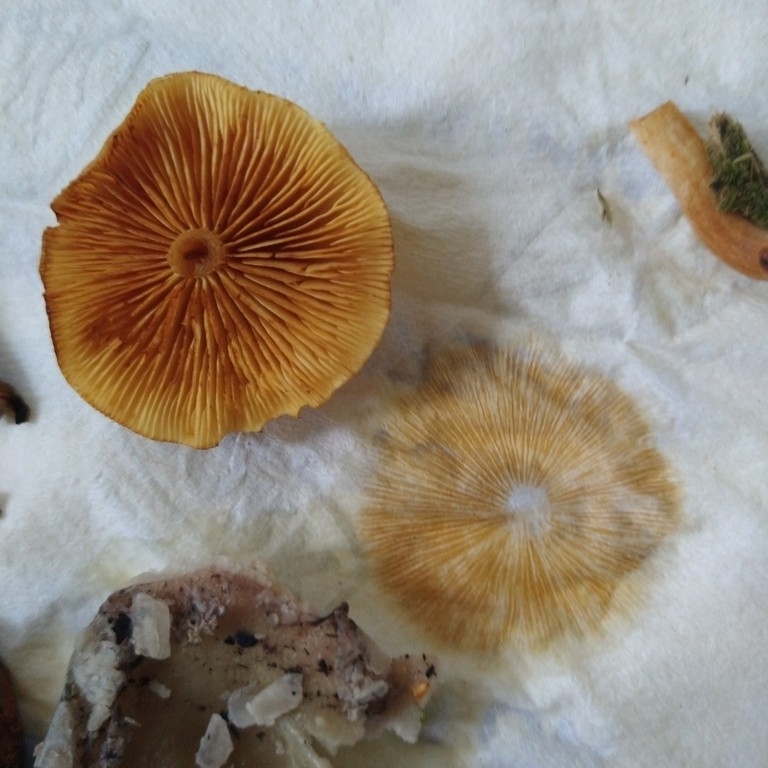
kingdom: Fungi
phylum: Basidiomycota
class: Agaricomycetes
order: Agaricales
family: Hymenogastraceae
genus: Gymnopilus
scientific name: Gymnopilus penetrans
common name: Common rustgill
